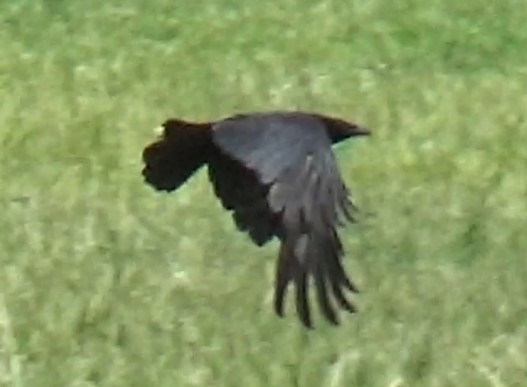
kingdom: Animalia
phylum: Chordata
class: Aves
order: Passeriformes
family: Corvidae
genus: Corvus
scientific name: Corvus corone
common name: Carrion crow
